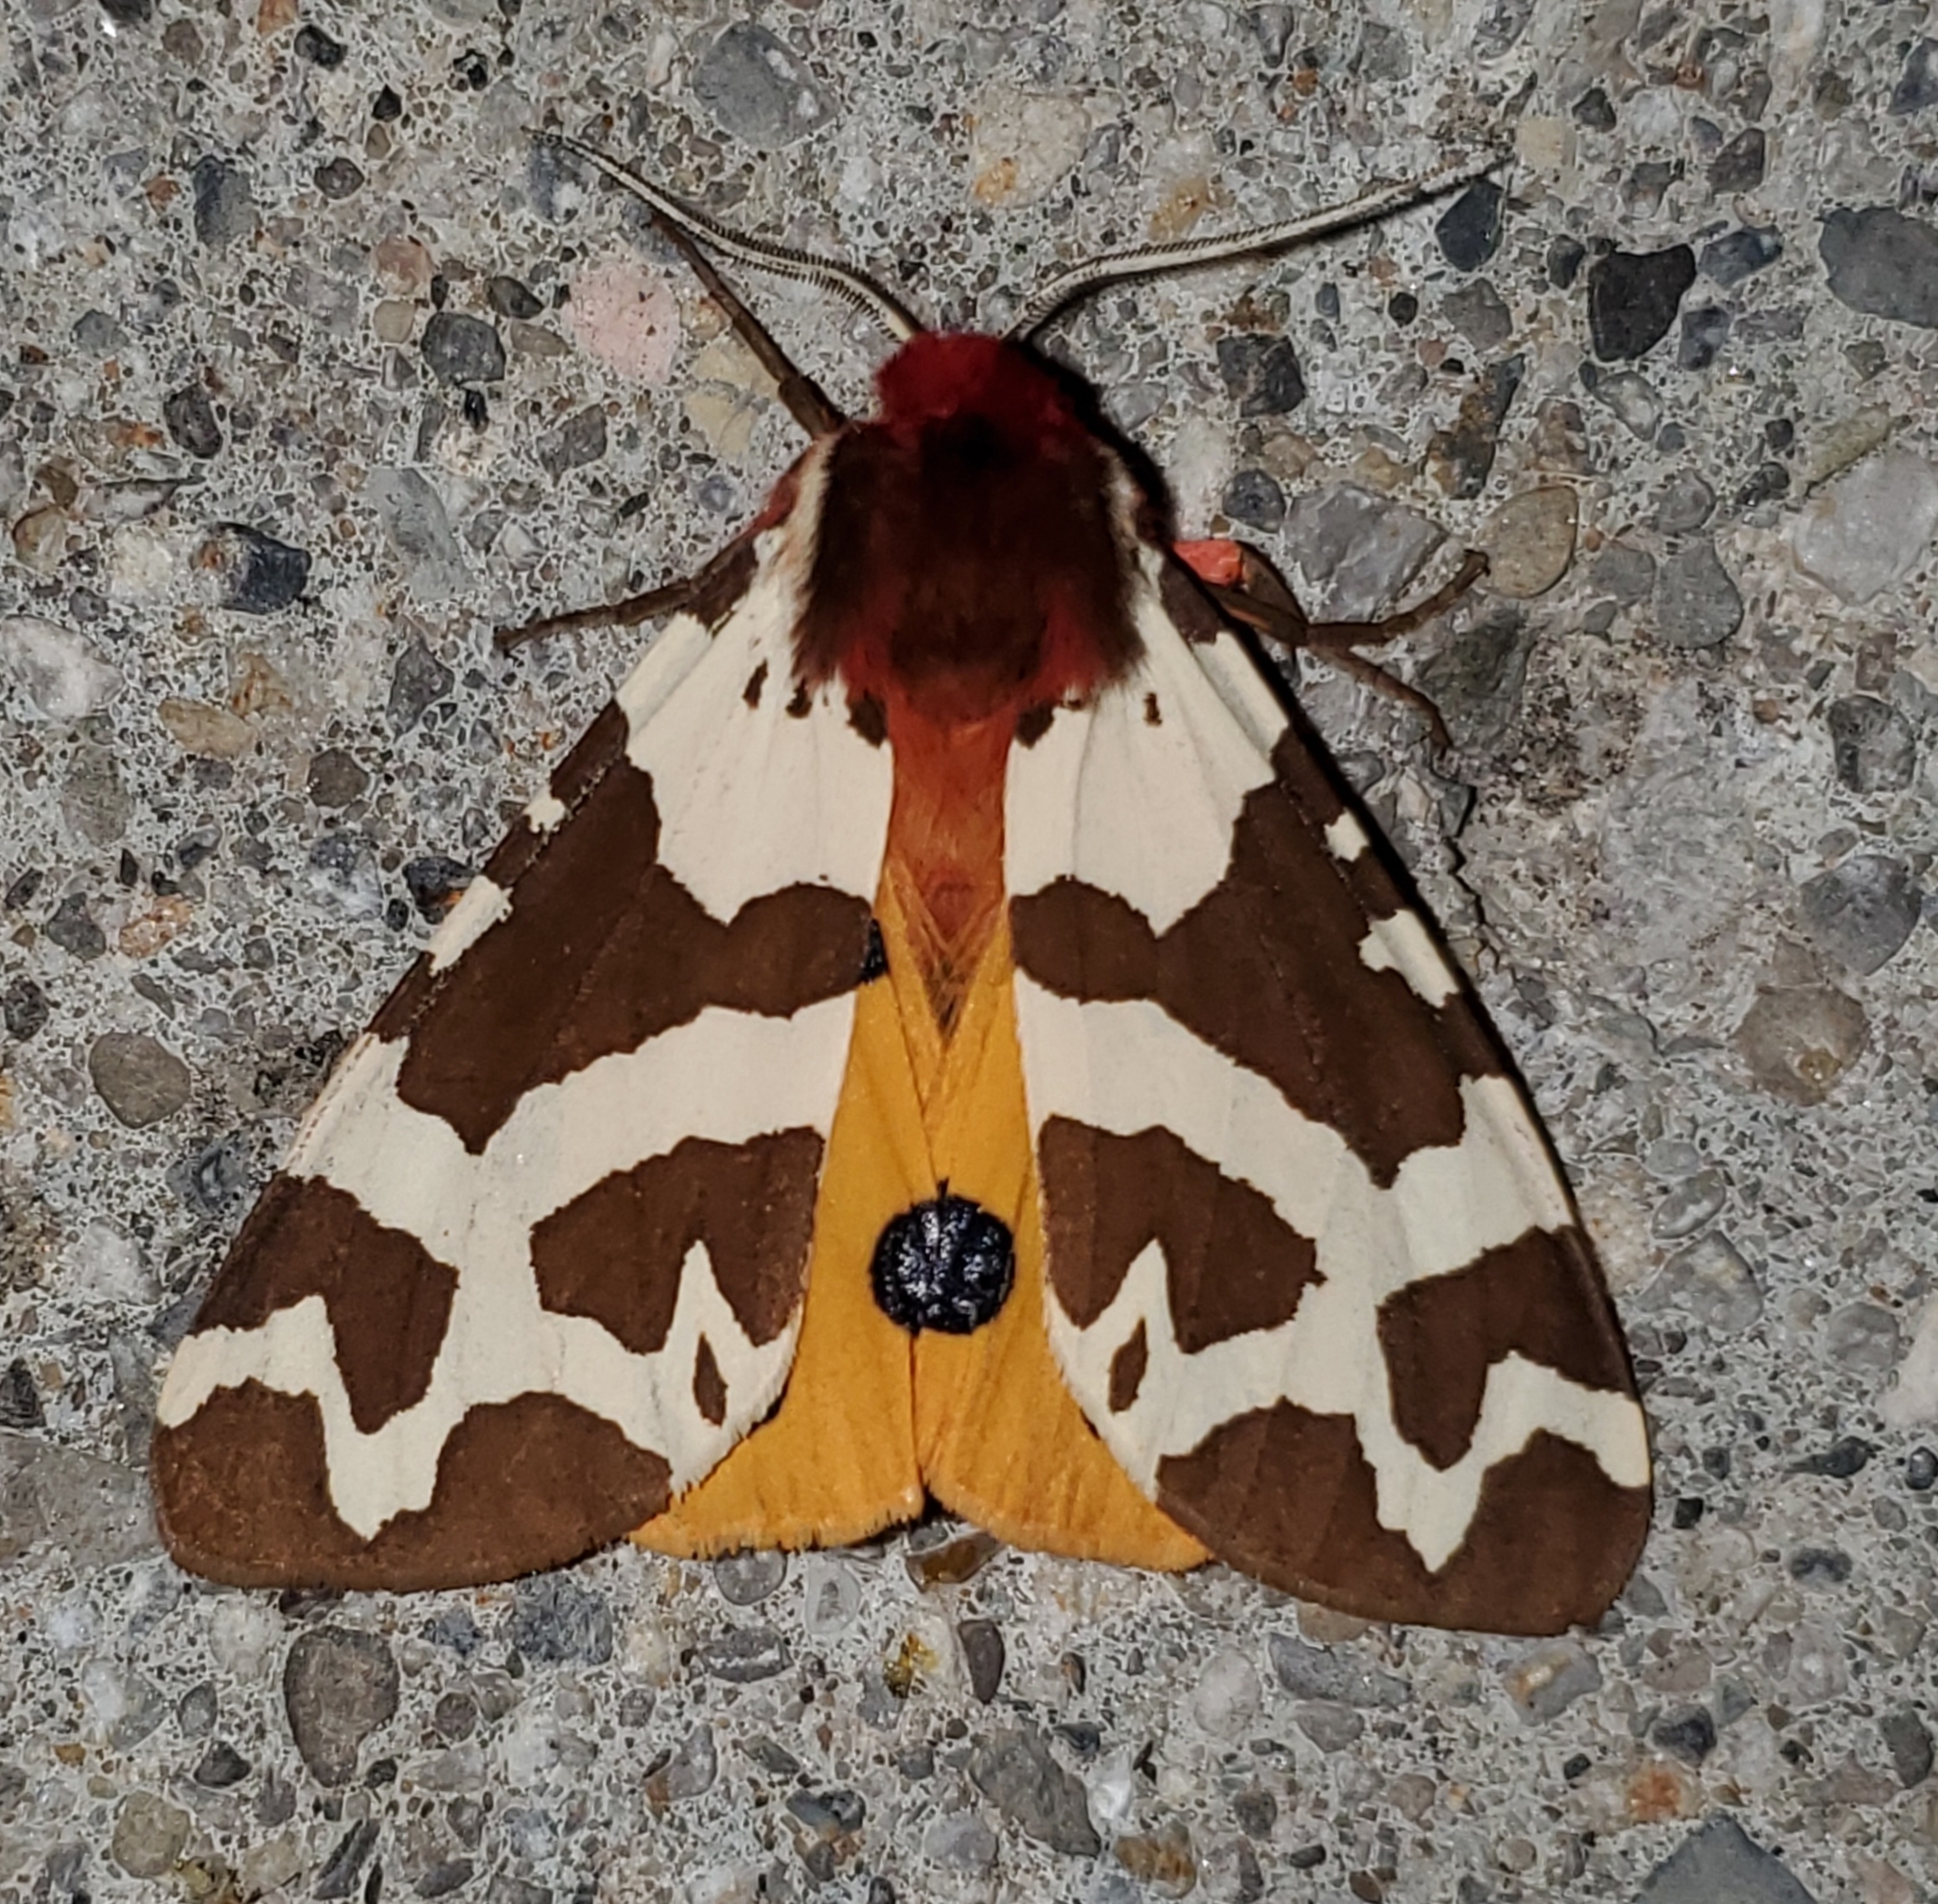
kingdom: Animalia
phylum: Arthropoda
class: Insecta
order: Lepidoptera
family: Erebidae
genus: Arctia
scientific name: Arctia caja
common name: Garden tiger
